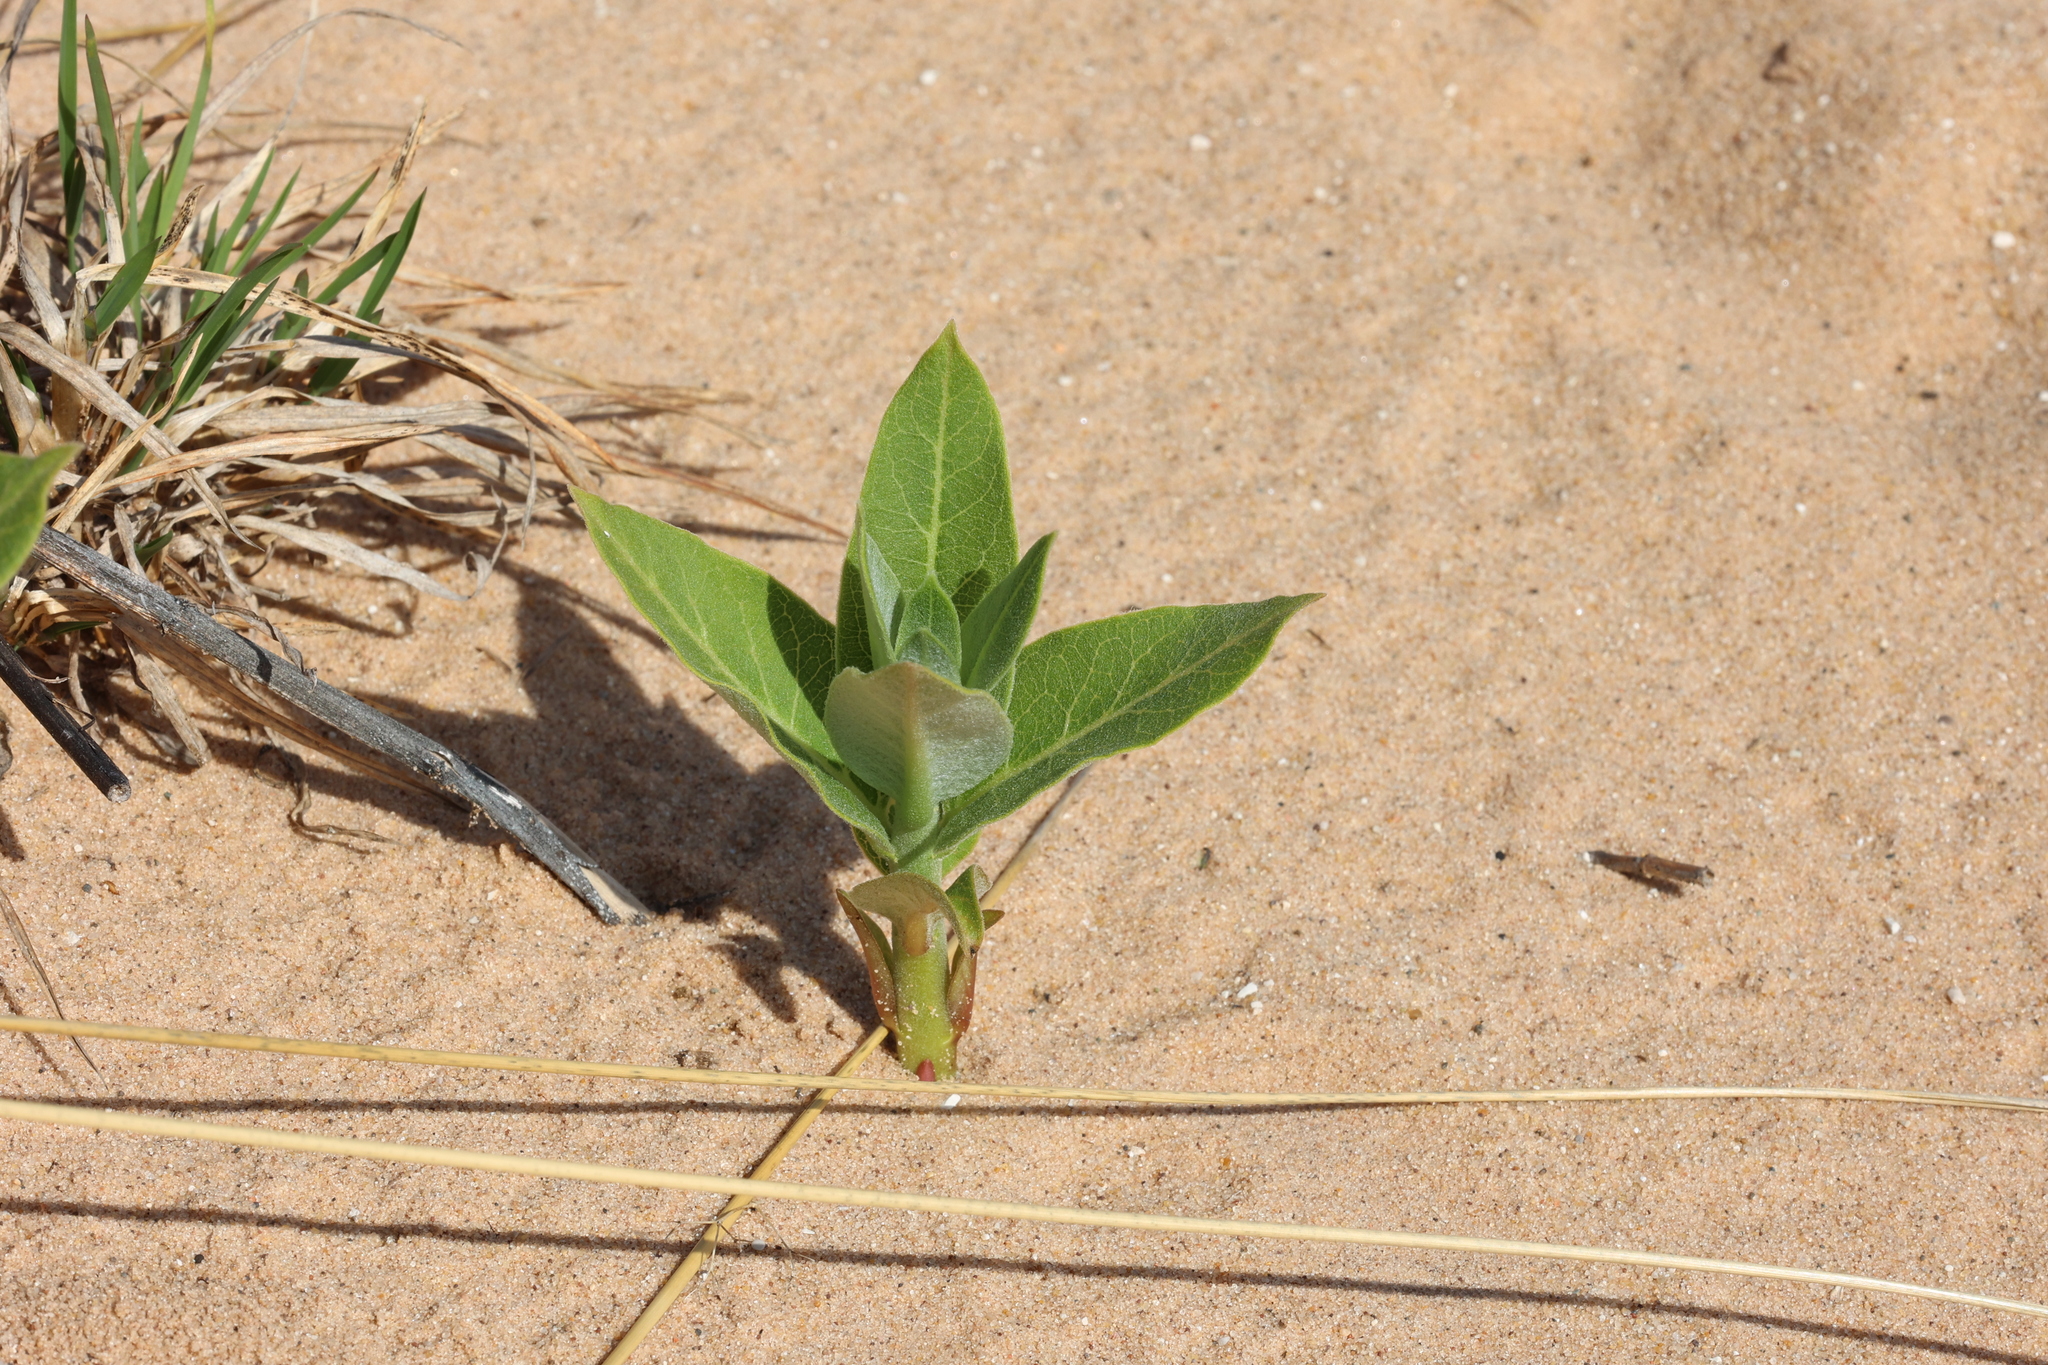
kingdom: Plantae
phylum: Tracheophyta
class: Magnoliopsida
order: Gentianales
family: Apocynaceae
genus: Asclepias
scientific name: Asclepias syriaca
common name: Common milkweed
